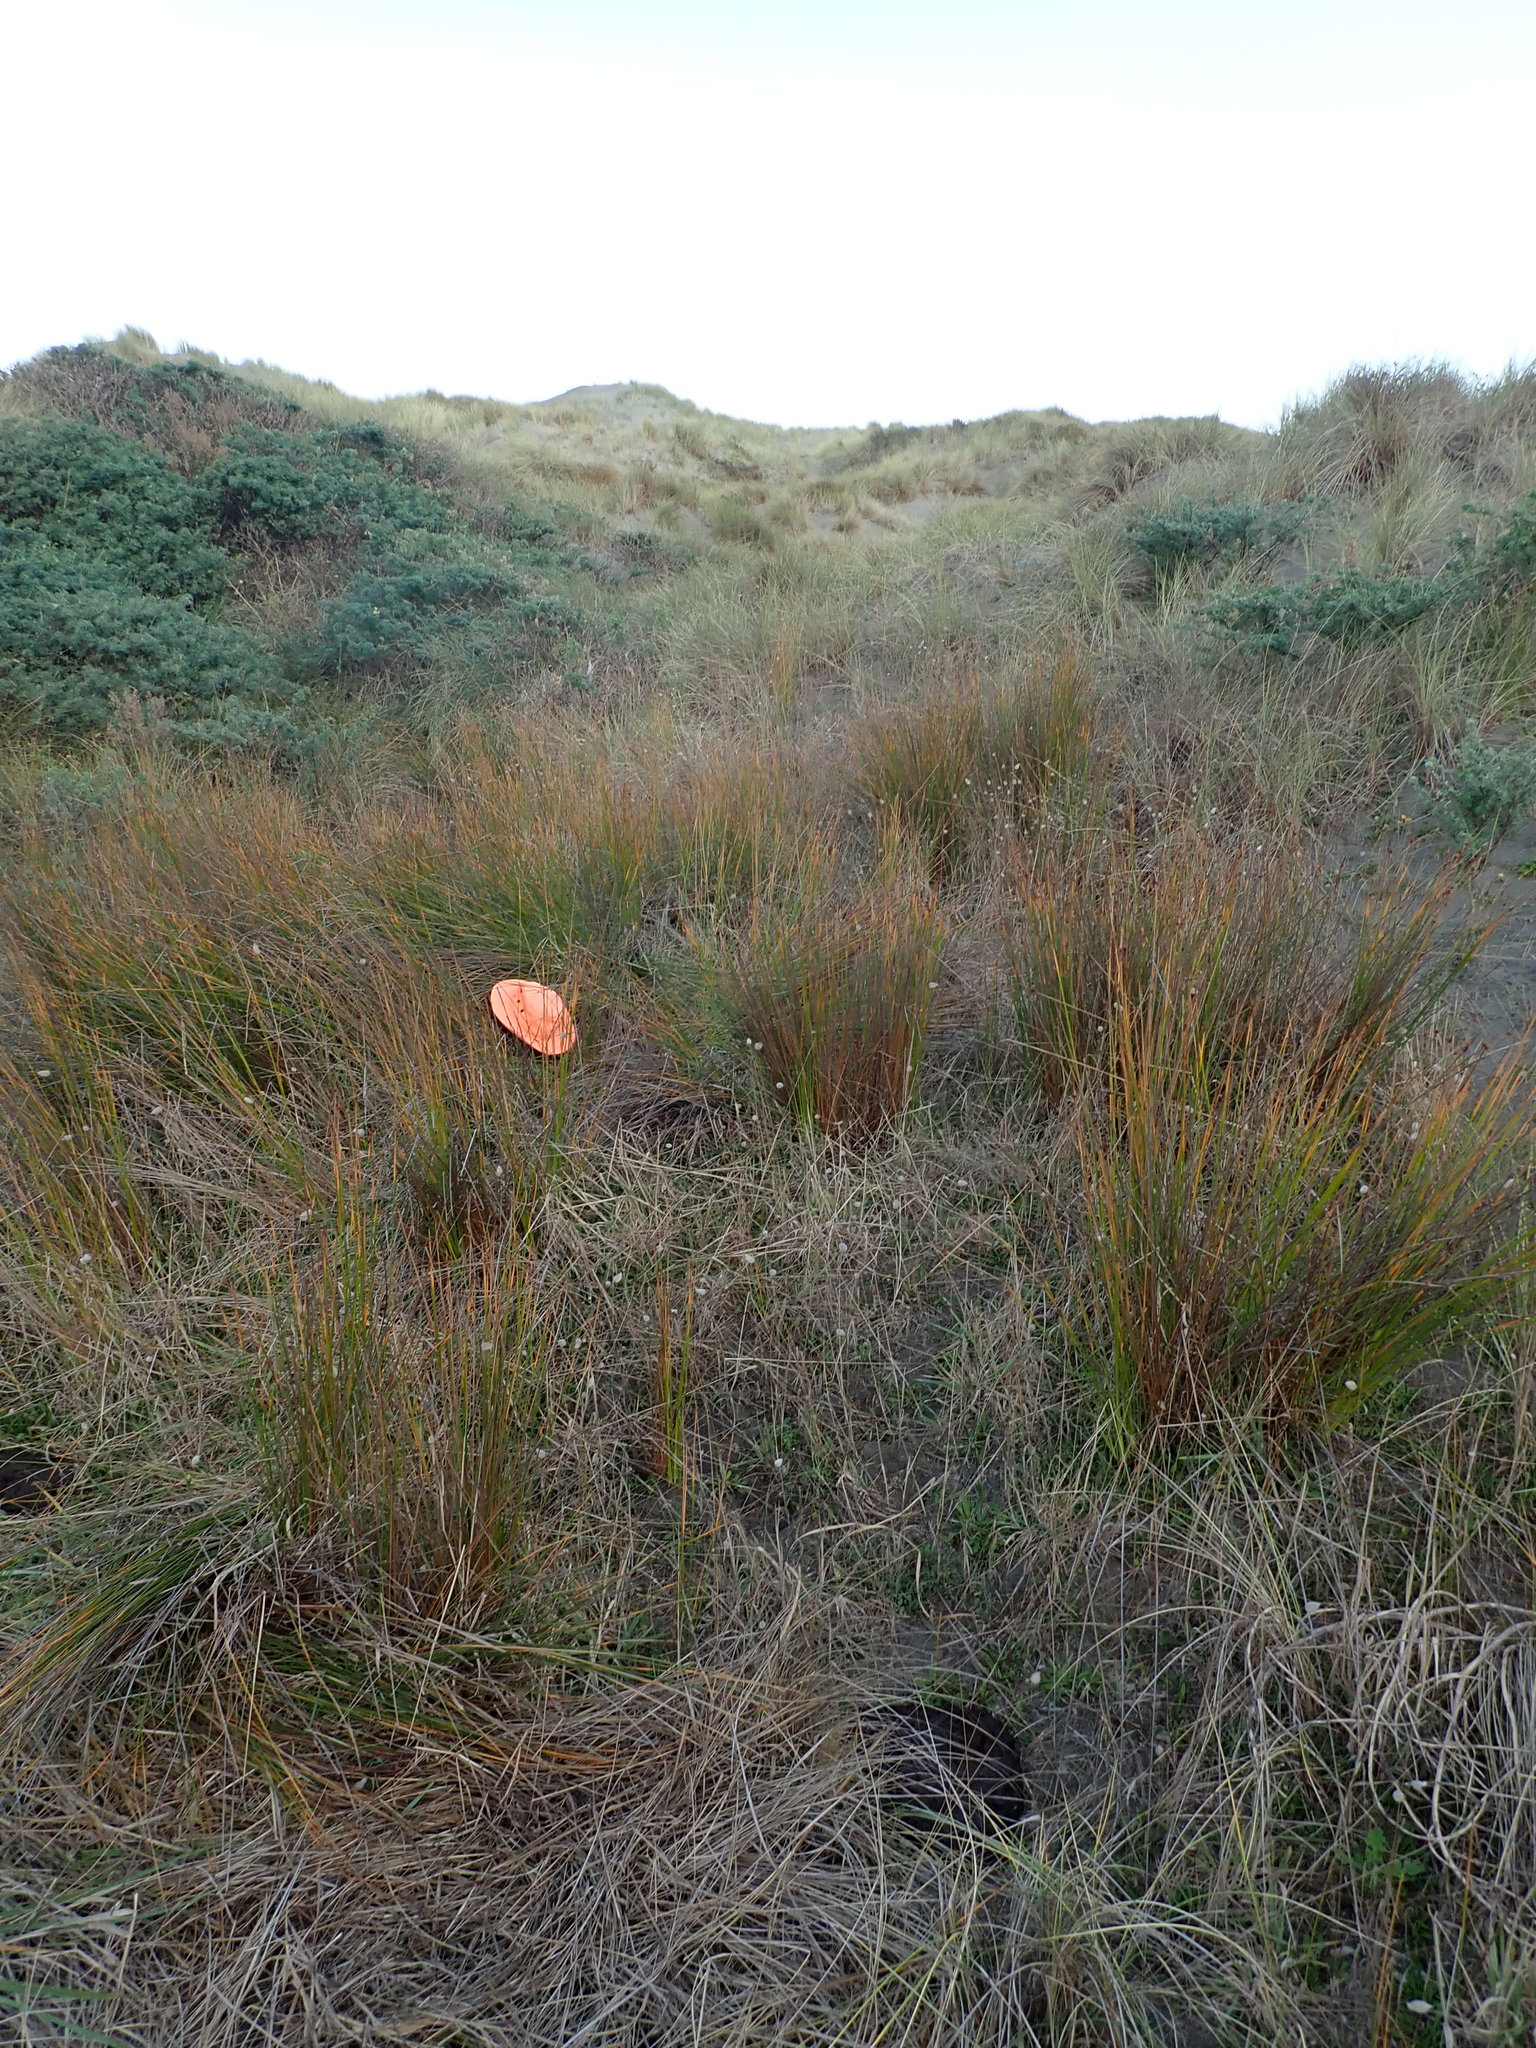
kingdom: Animalia
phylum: Chordata
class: Mammalia
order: Artiodactyla
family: Bovidae
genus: Bos
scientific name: Bos taurus
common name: Domesticated cattle
